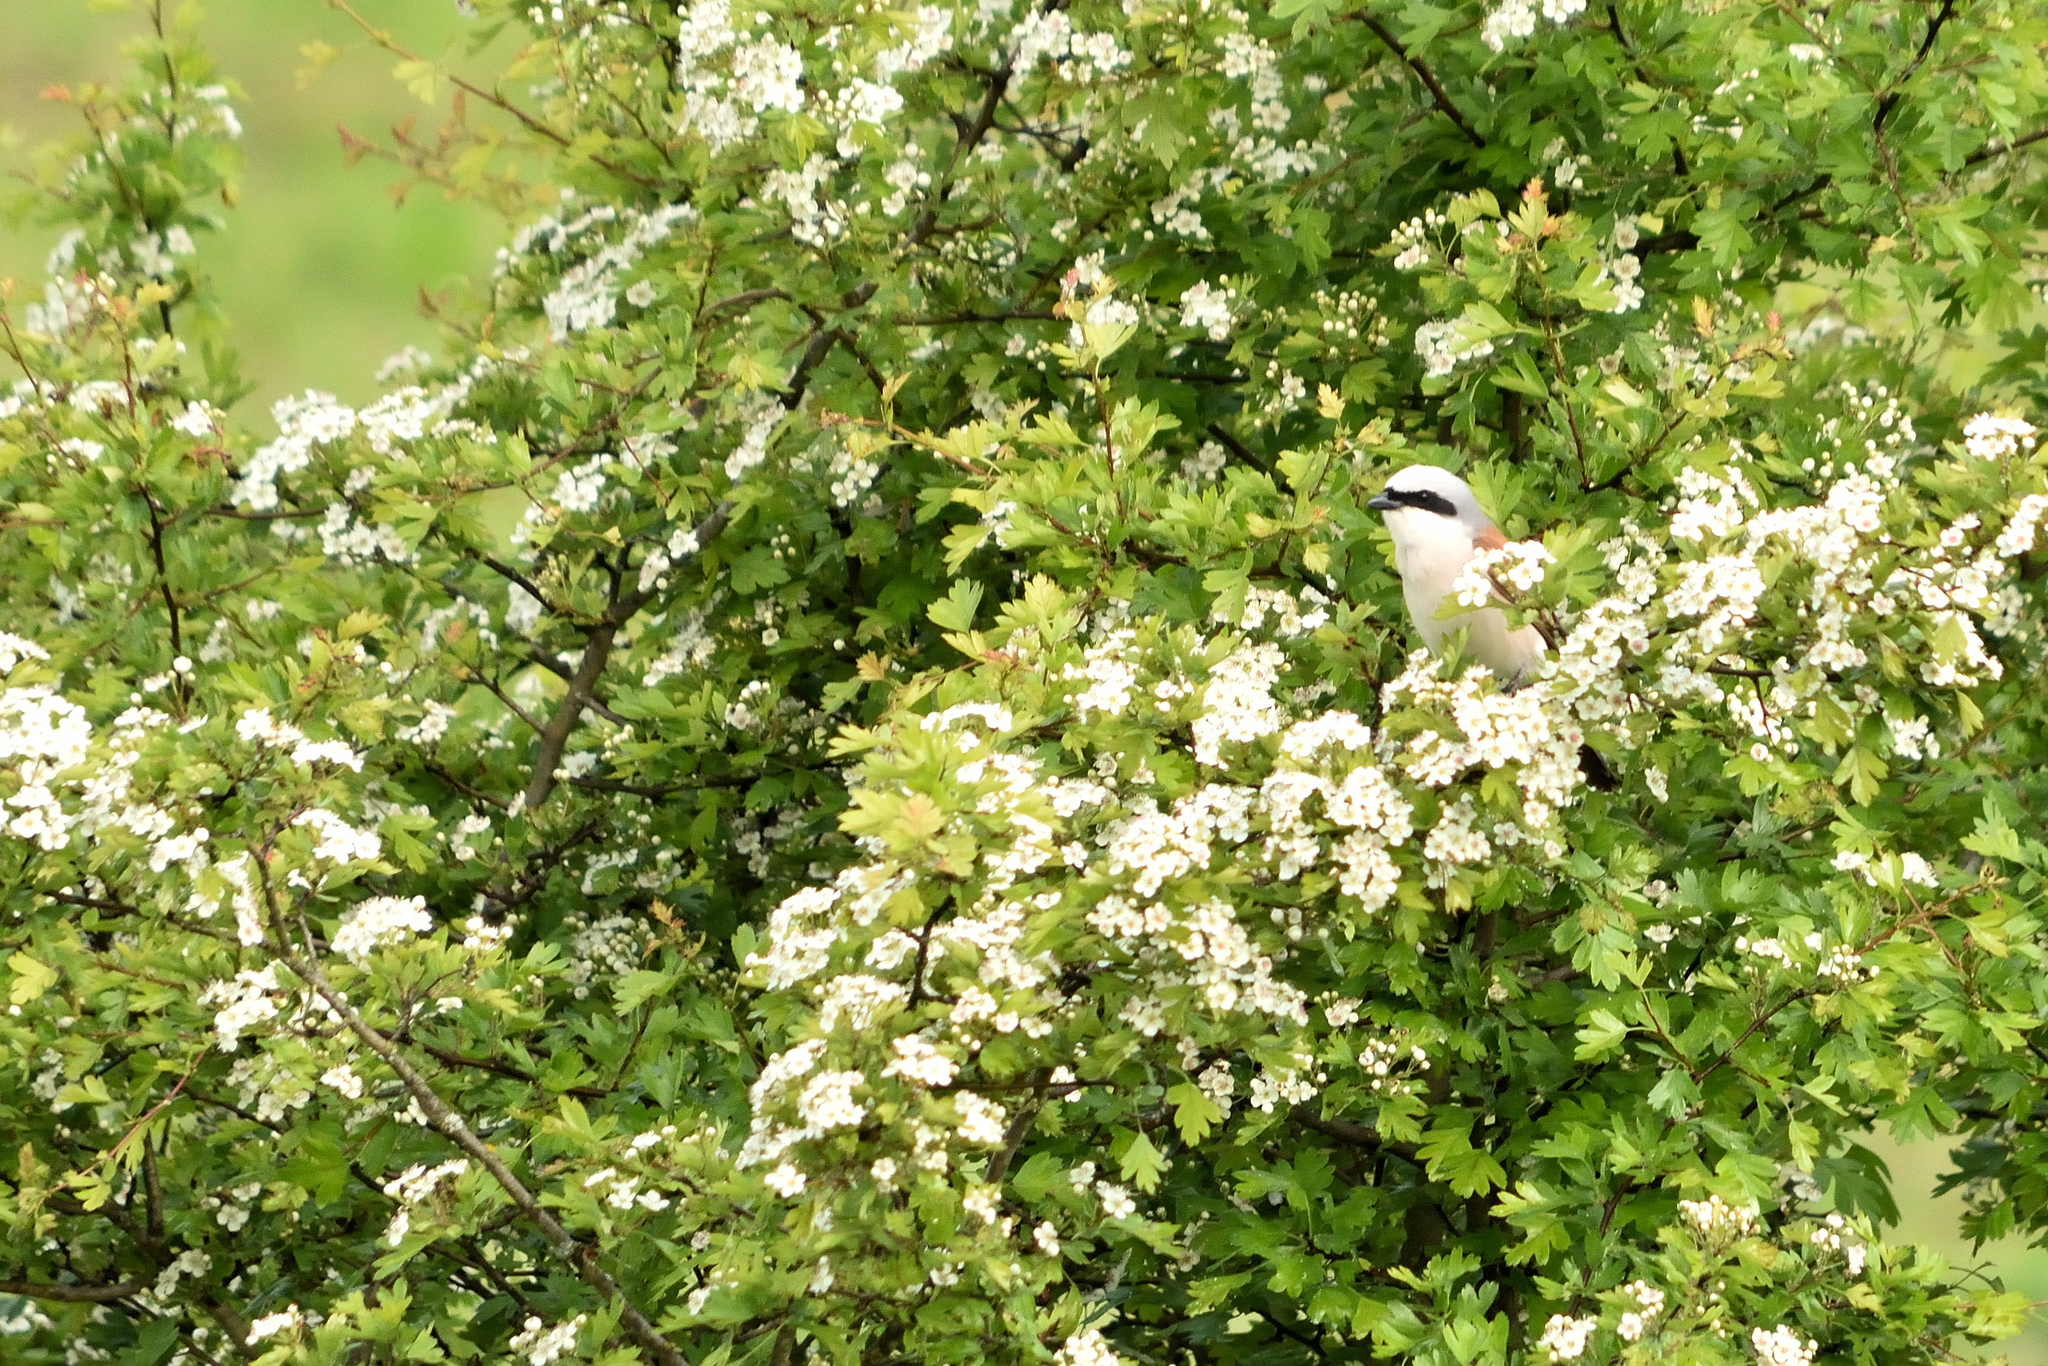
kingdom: Animalia
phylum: Chordata
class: Aves
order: Passeriformes
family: Laniidae
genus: Lanius
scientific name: Lanius collurio
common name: Red-backed shrike
